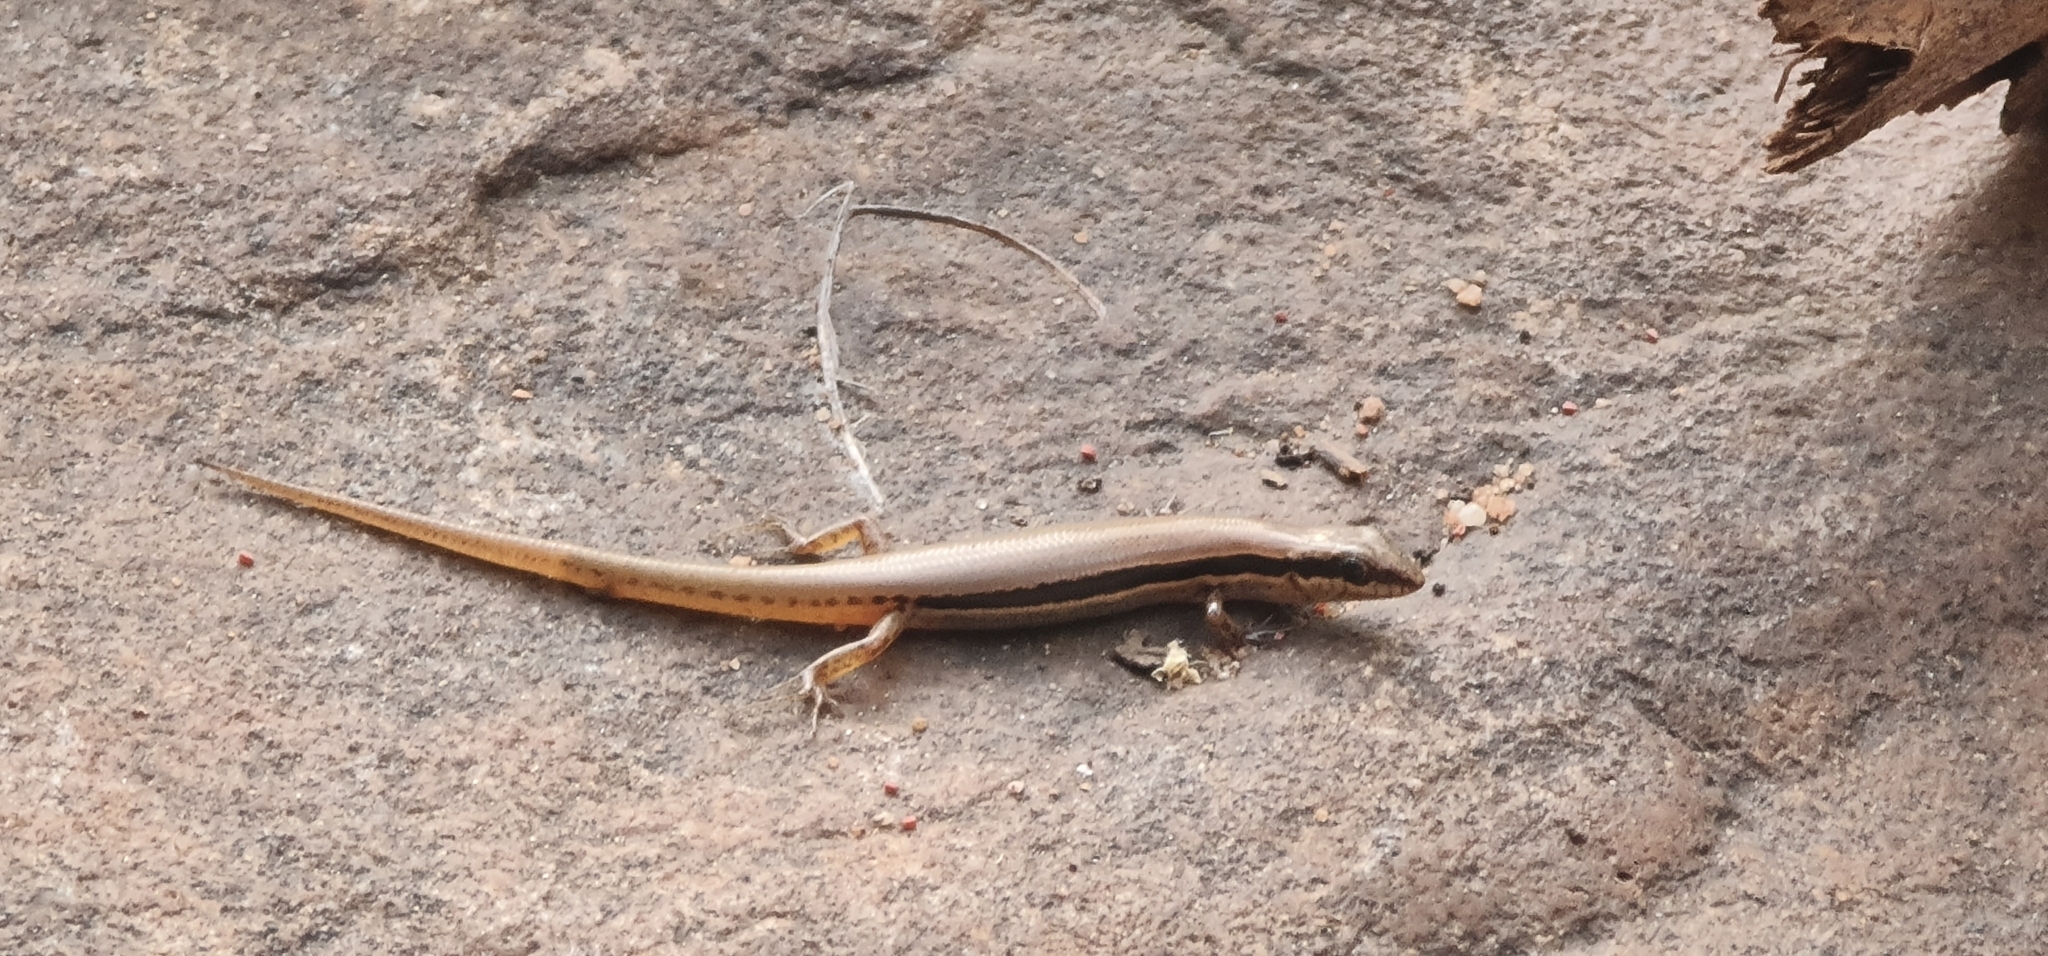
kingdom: Animalia
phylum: Chordata
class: Squamata
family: Scincidae
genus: Notoscincus
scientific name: Notoscincus ornatus
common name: Ornate soil-crevice skink
